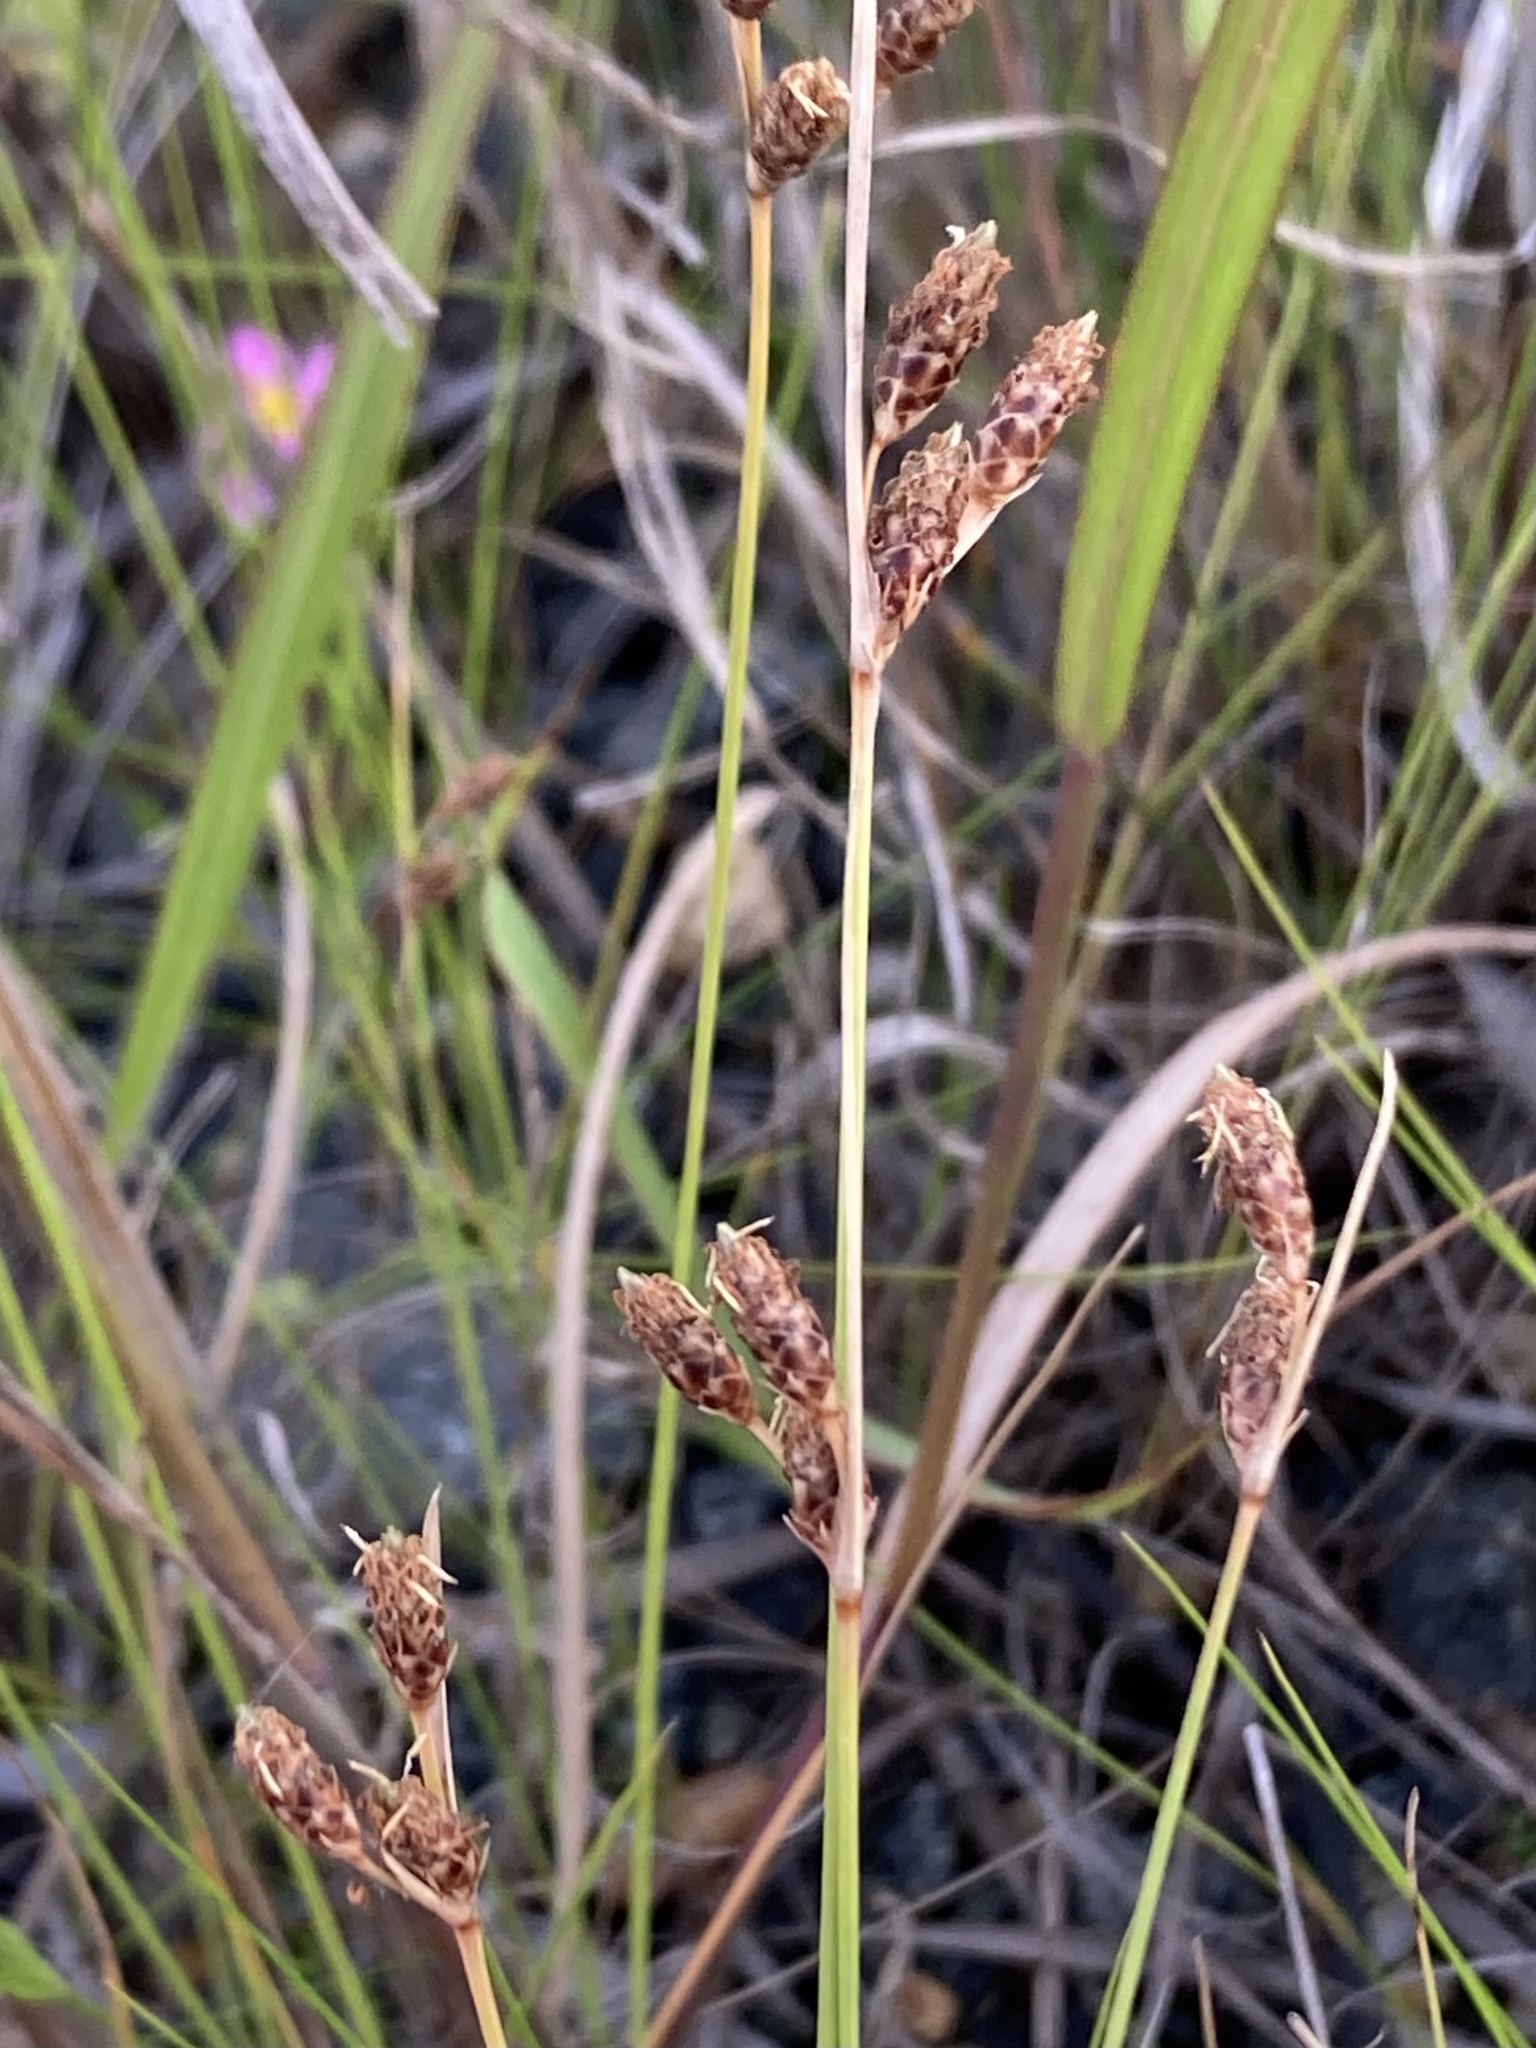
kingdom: Plantae
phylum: Tracheophyta
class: Liliopsida
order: Poales
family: Cyperaceae
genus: Fimbristylis
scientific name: Fimbristylis spadicea
